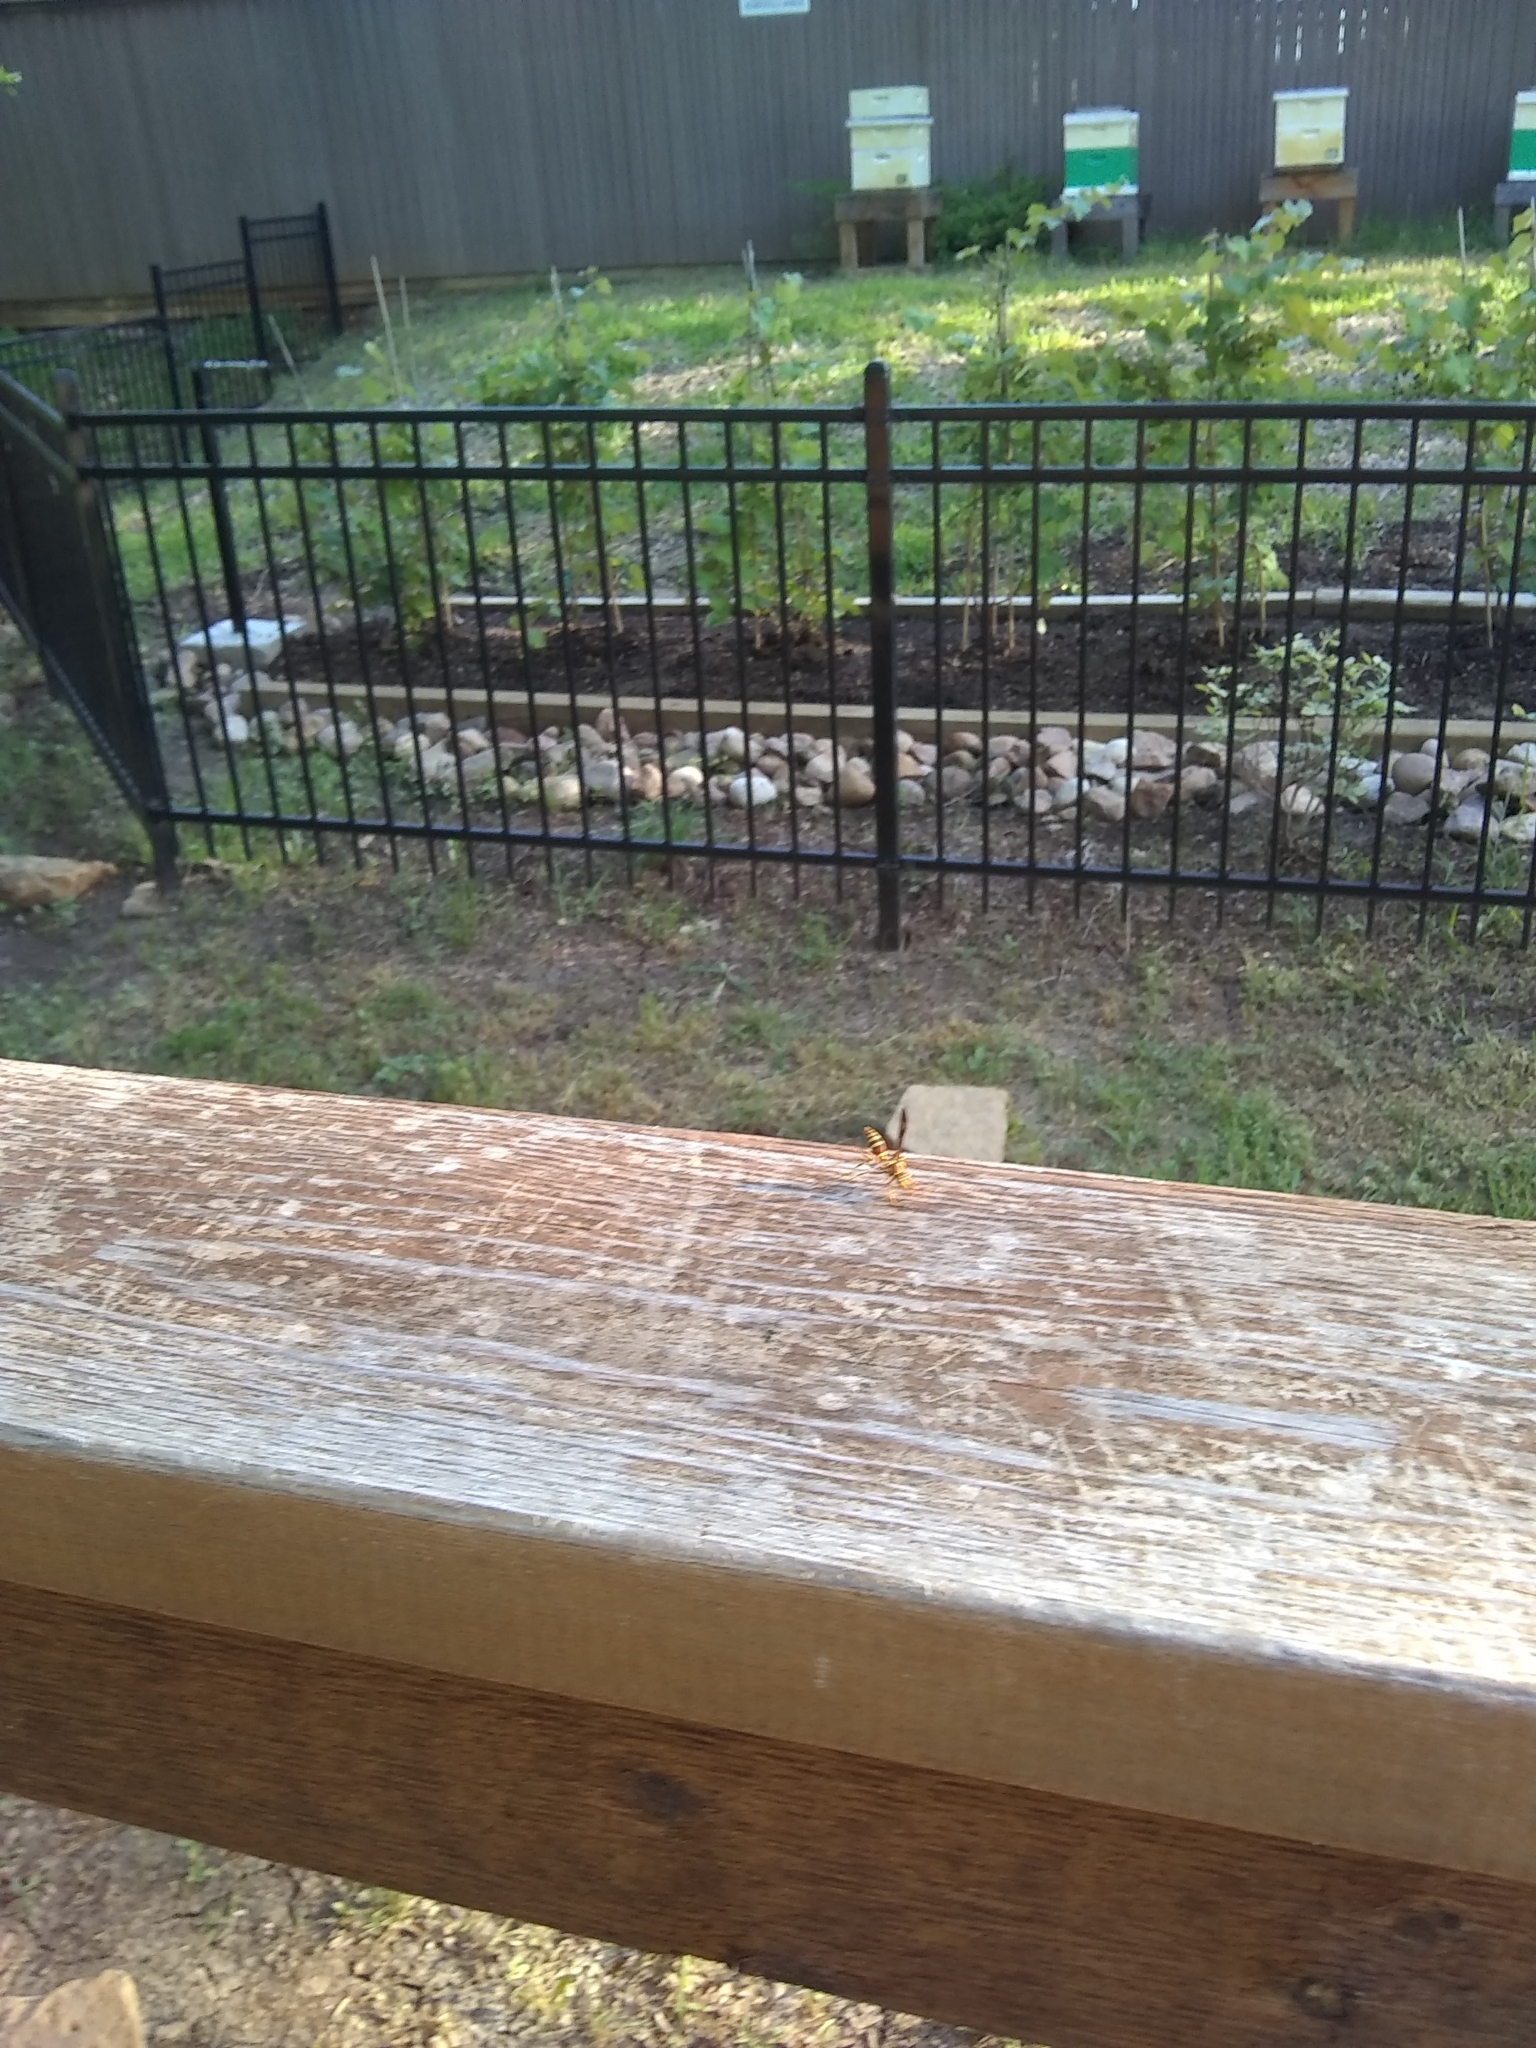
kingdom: Animalia
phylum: Arthropoda
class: Insecta
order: Hymenoptera
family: Eumenidae
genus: Polistes
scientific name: Polistes exclamans
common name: Paper wasp
